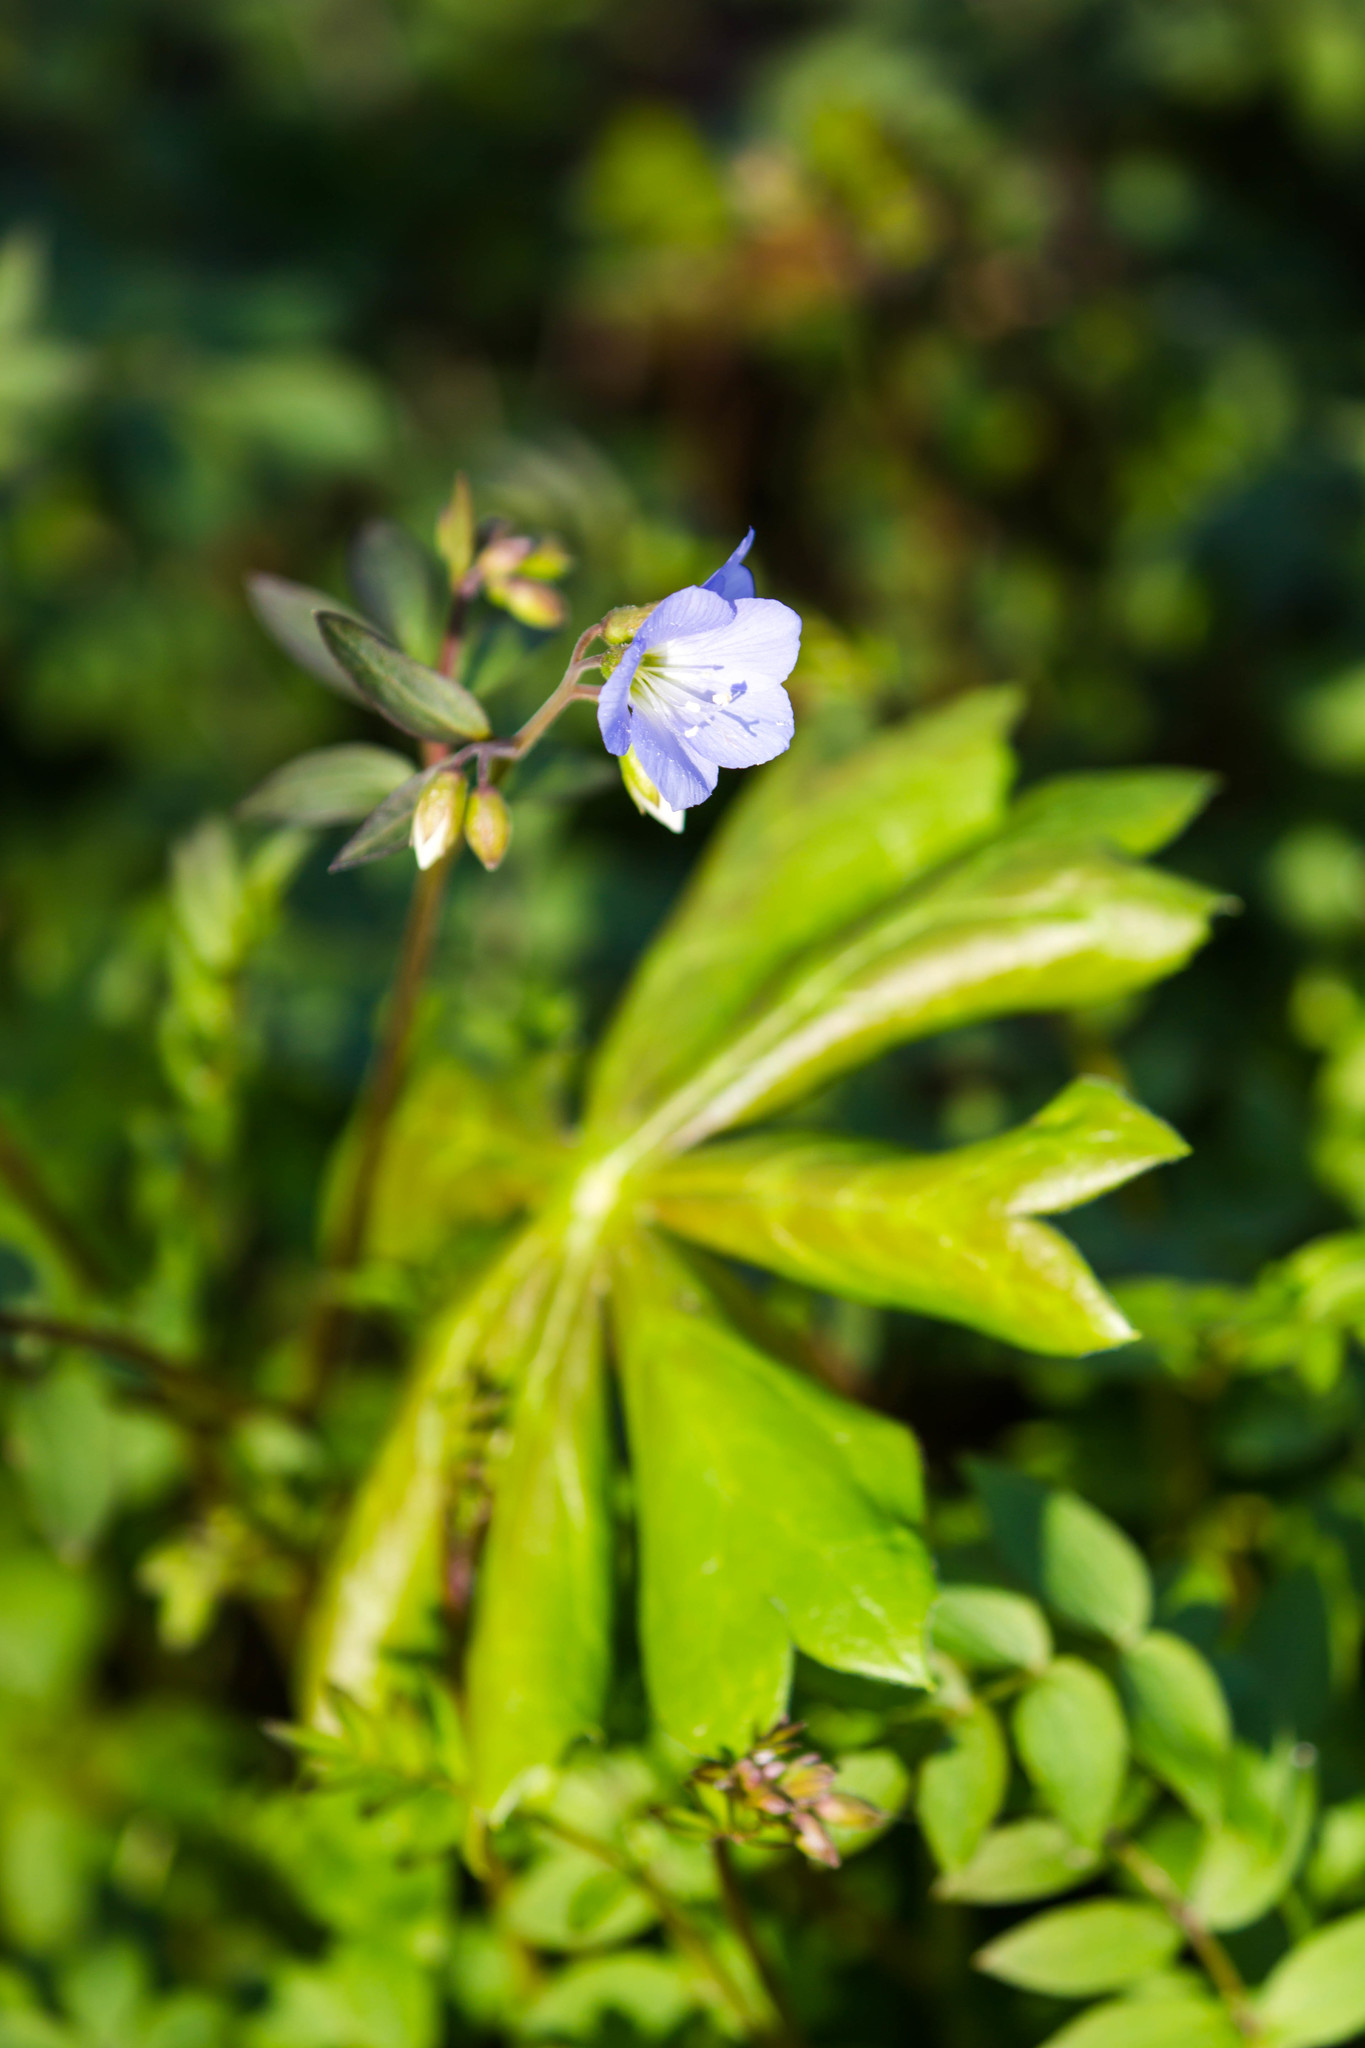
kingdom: Plantae
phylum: Tracheophyta
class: Magnoliopsida
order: Ericales
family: Polemoniaceae
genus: Polemonium
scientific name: Polemonium reptans
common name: Creeping jacob's-ladder
